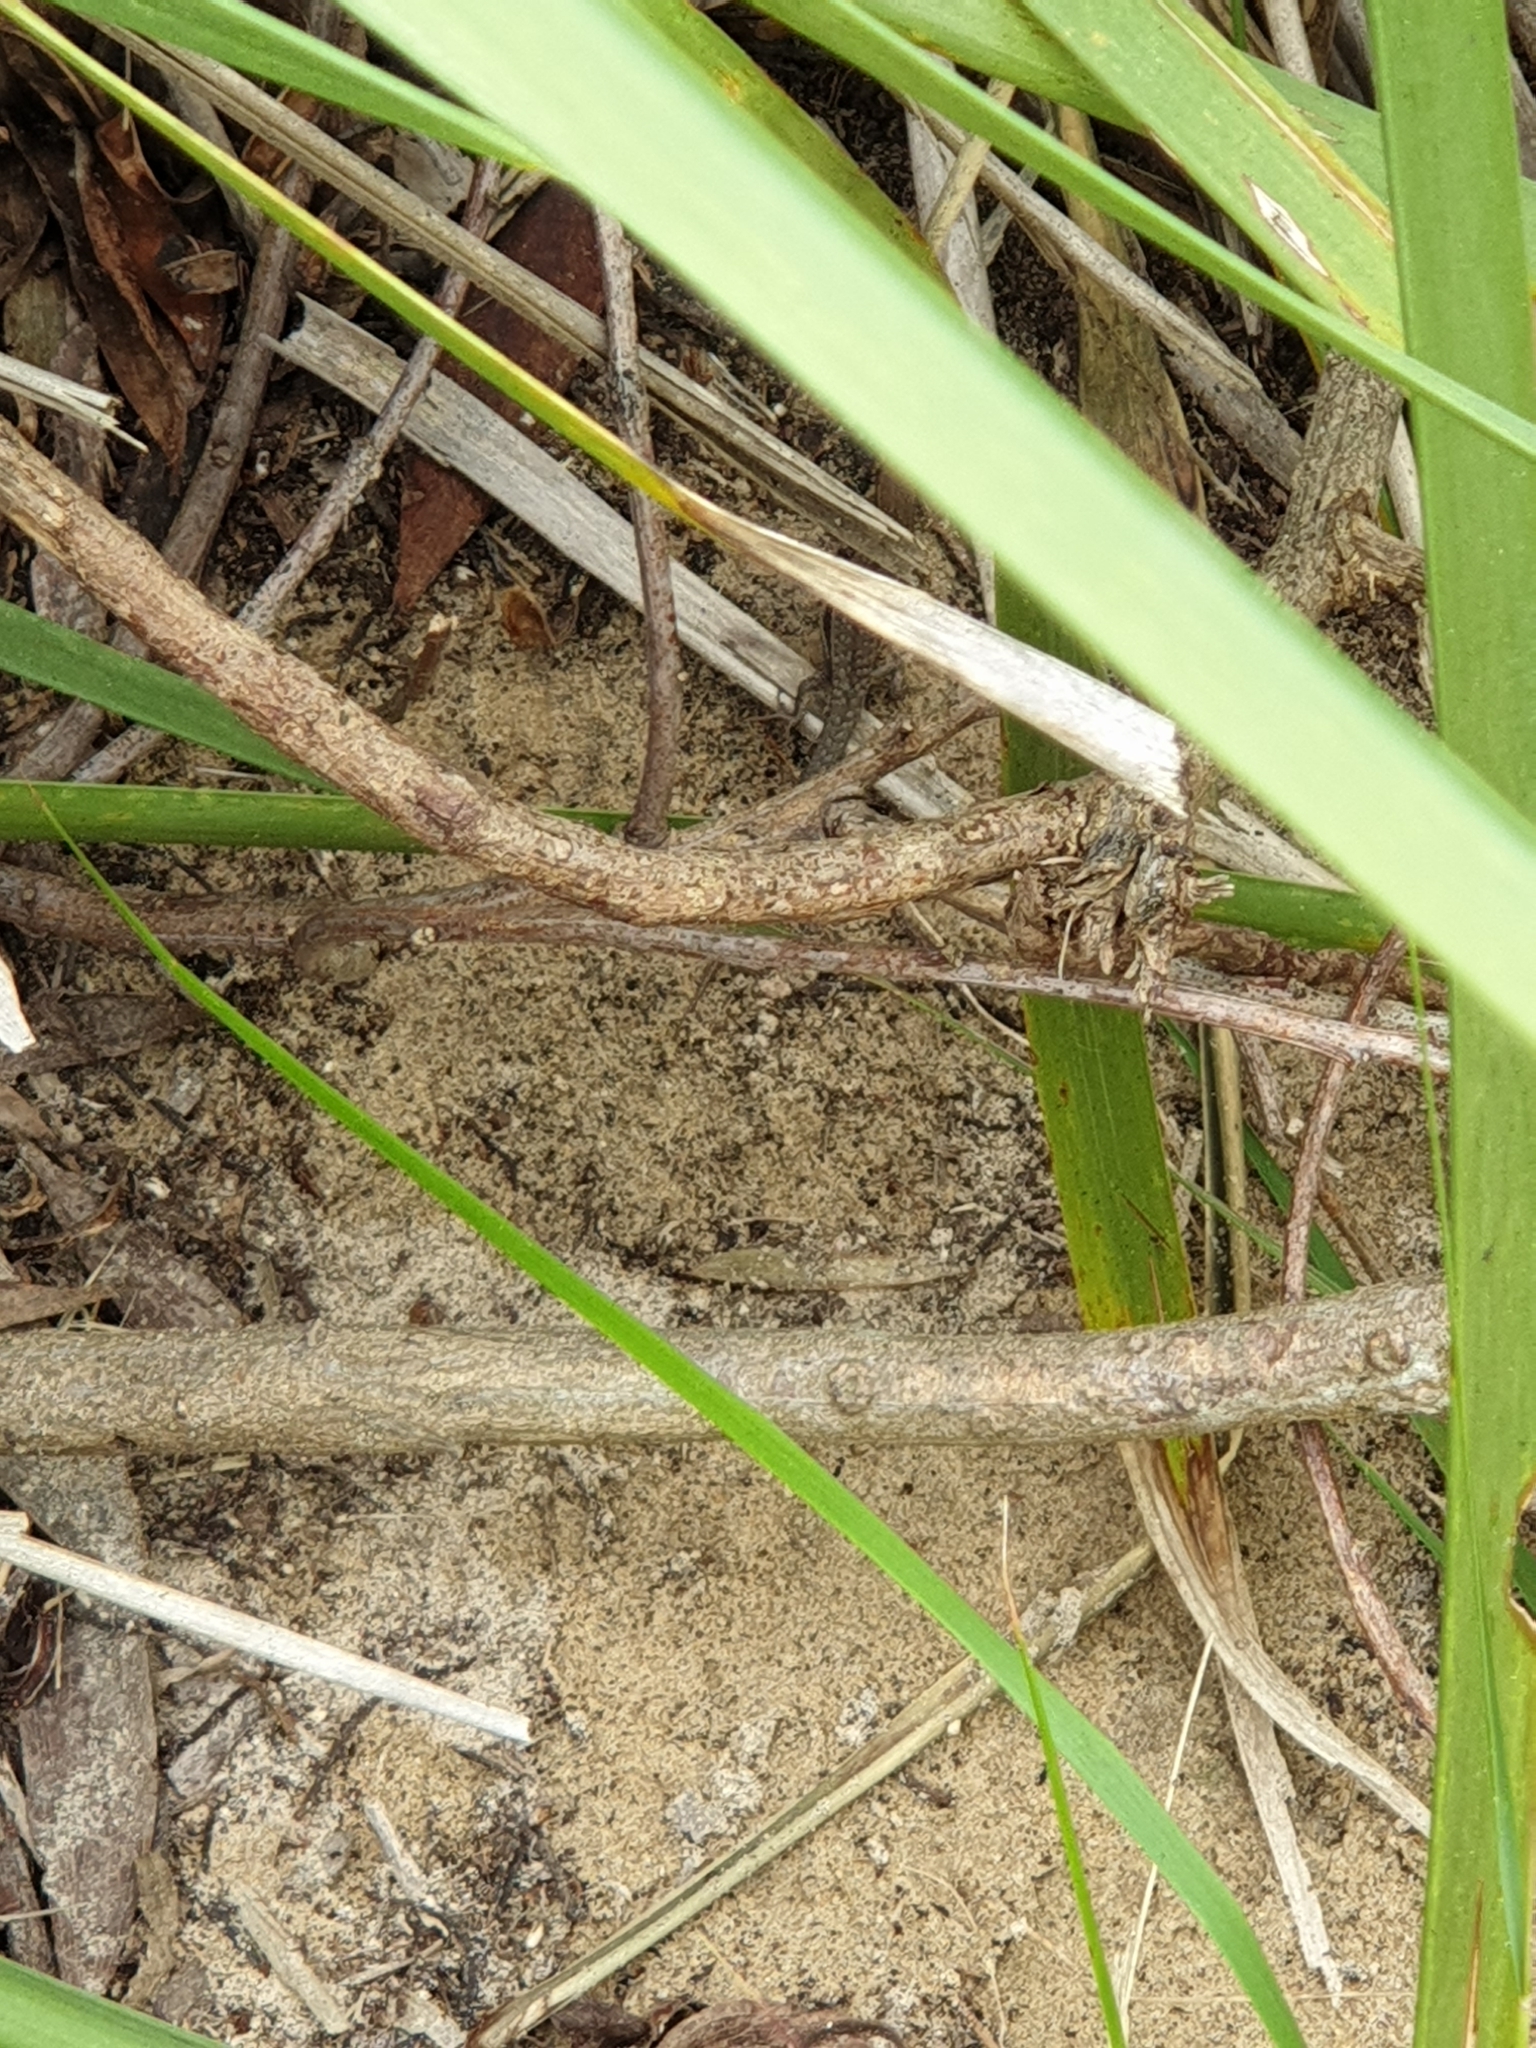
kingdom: Animalia
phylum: Chordata
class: Squamata
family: Scincidae
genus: Lampropholis
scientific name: Lampropholis guichenoti
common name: Garden skink
